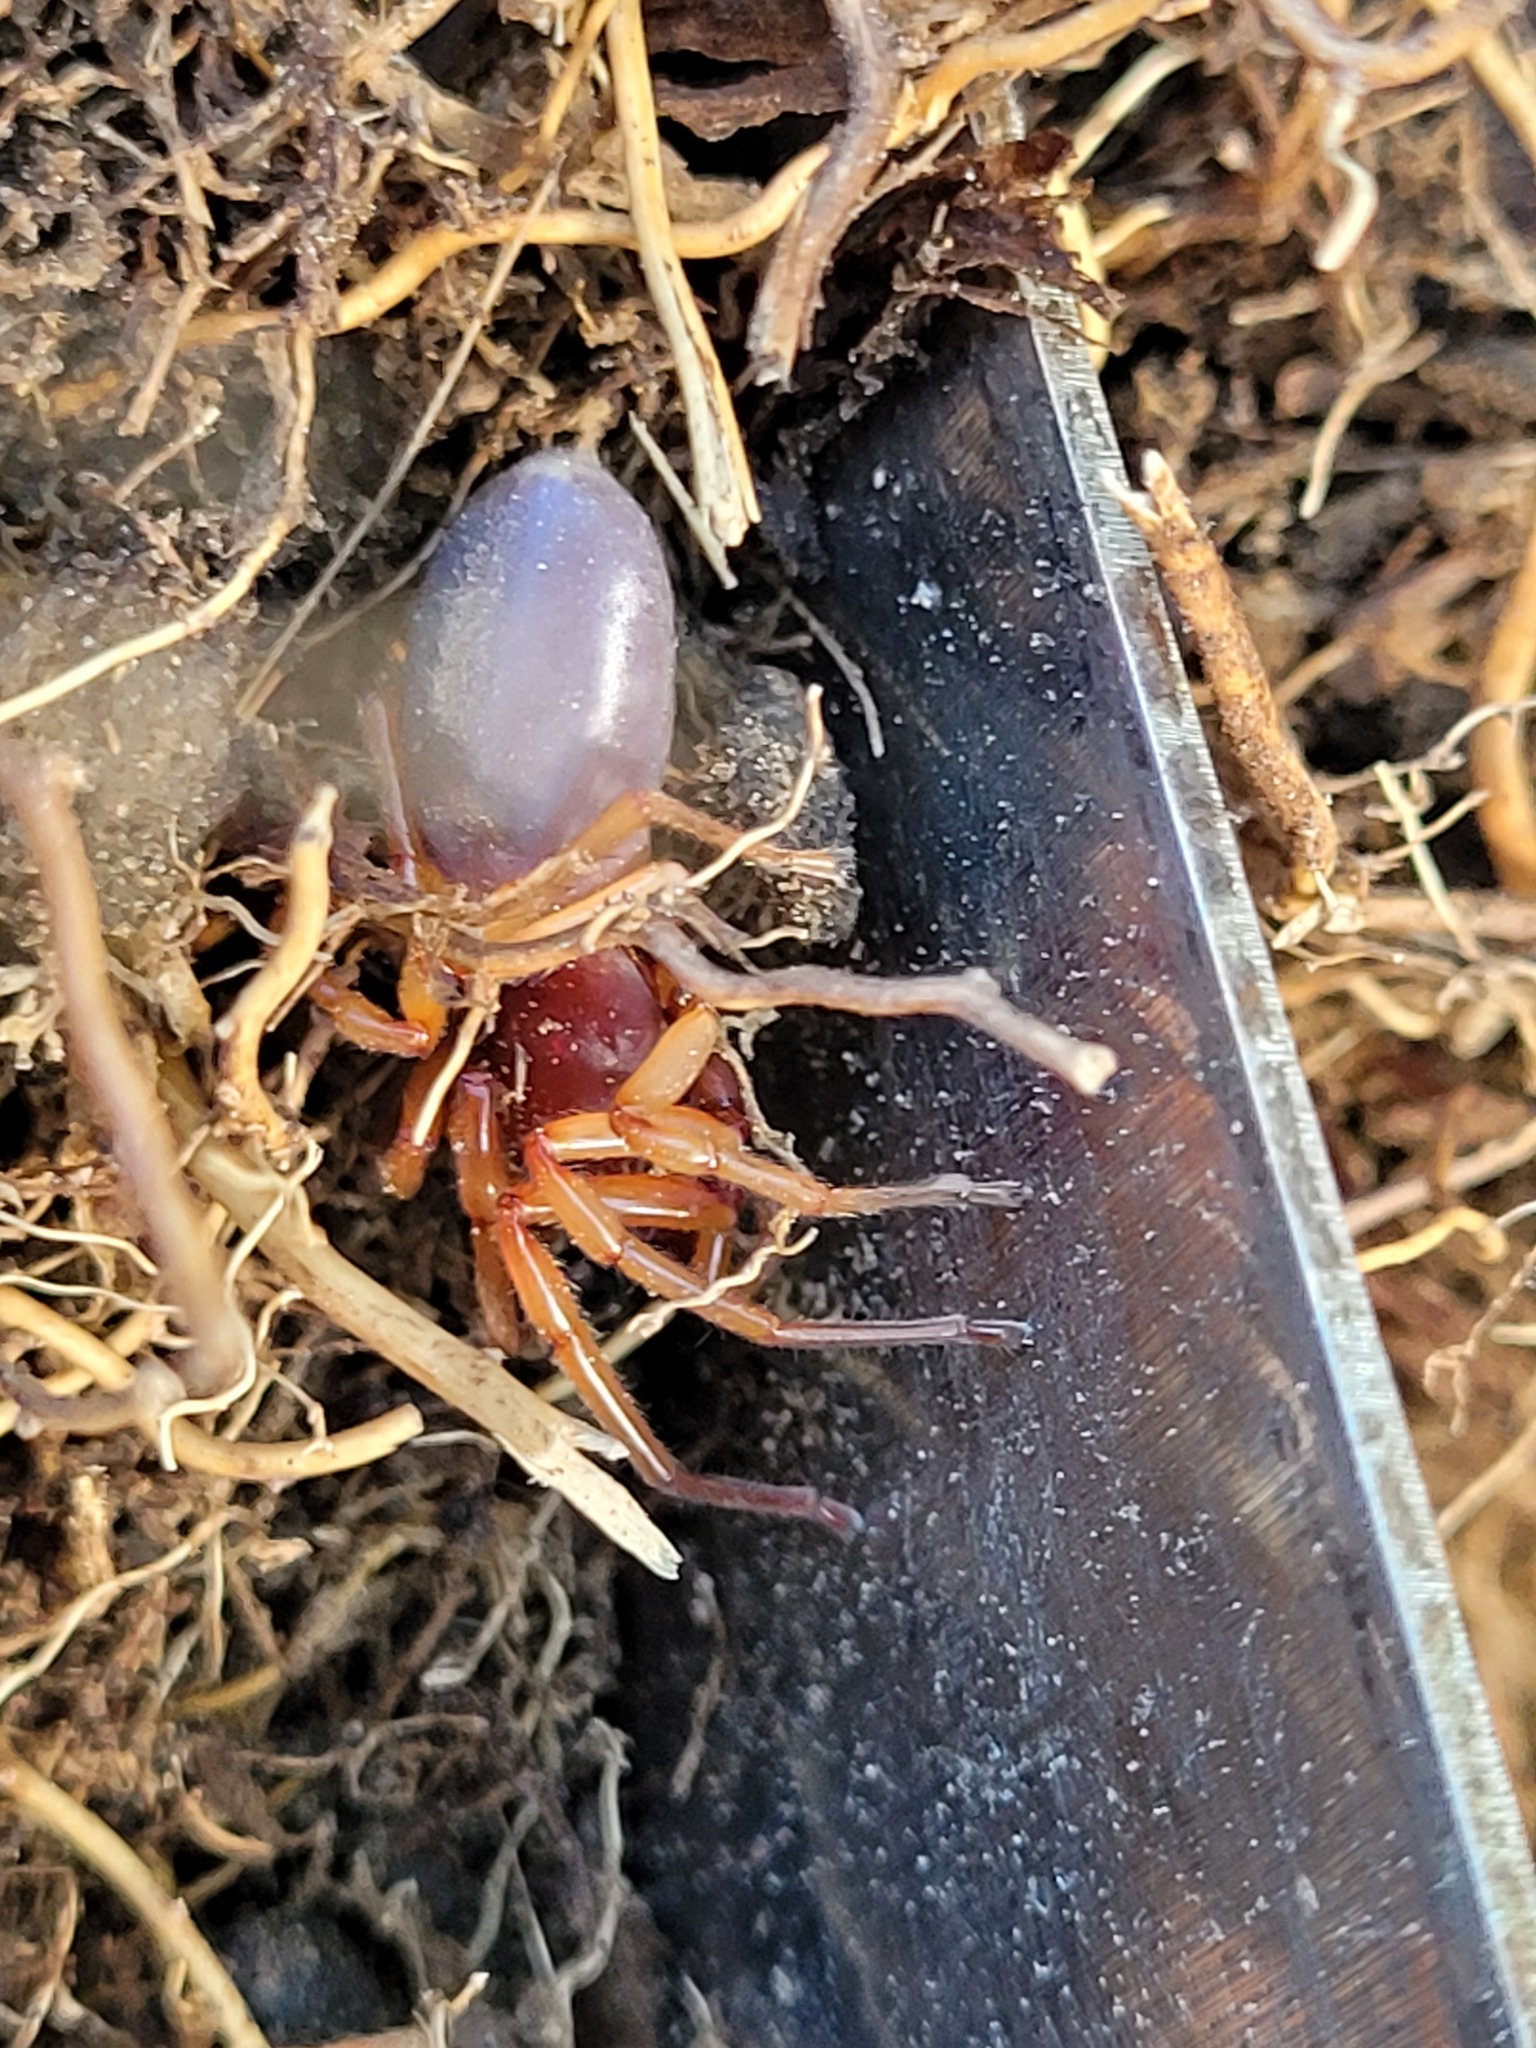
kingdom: Animalia
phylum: Arthropoda
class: Arachnida
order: Araneae
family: Dysderidae
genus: Dysdera
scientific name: Dysdera crocata
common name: Woodlouse spider
